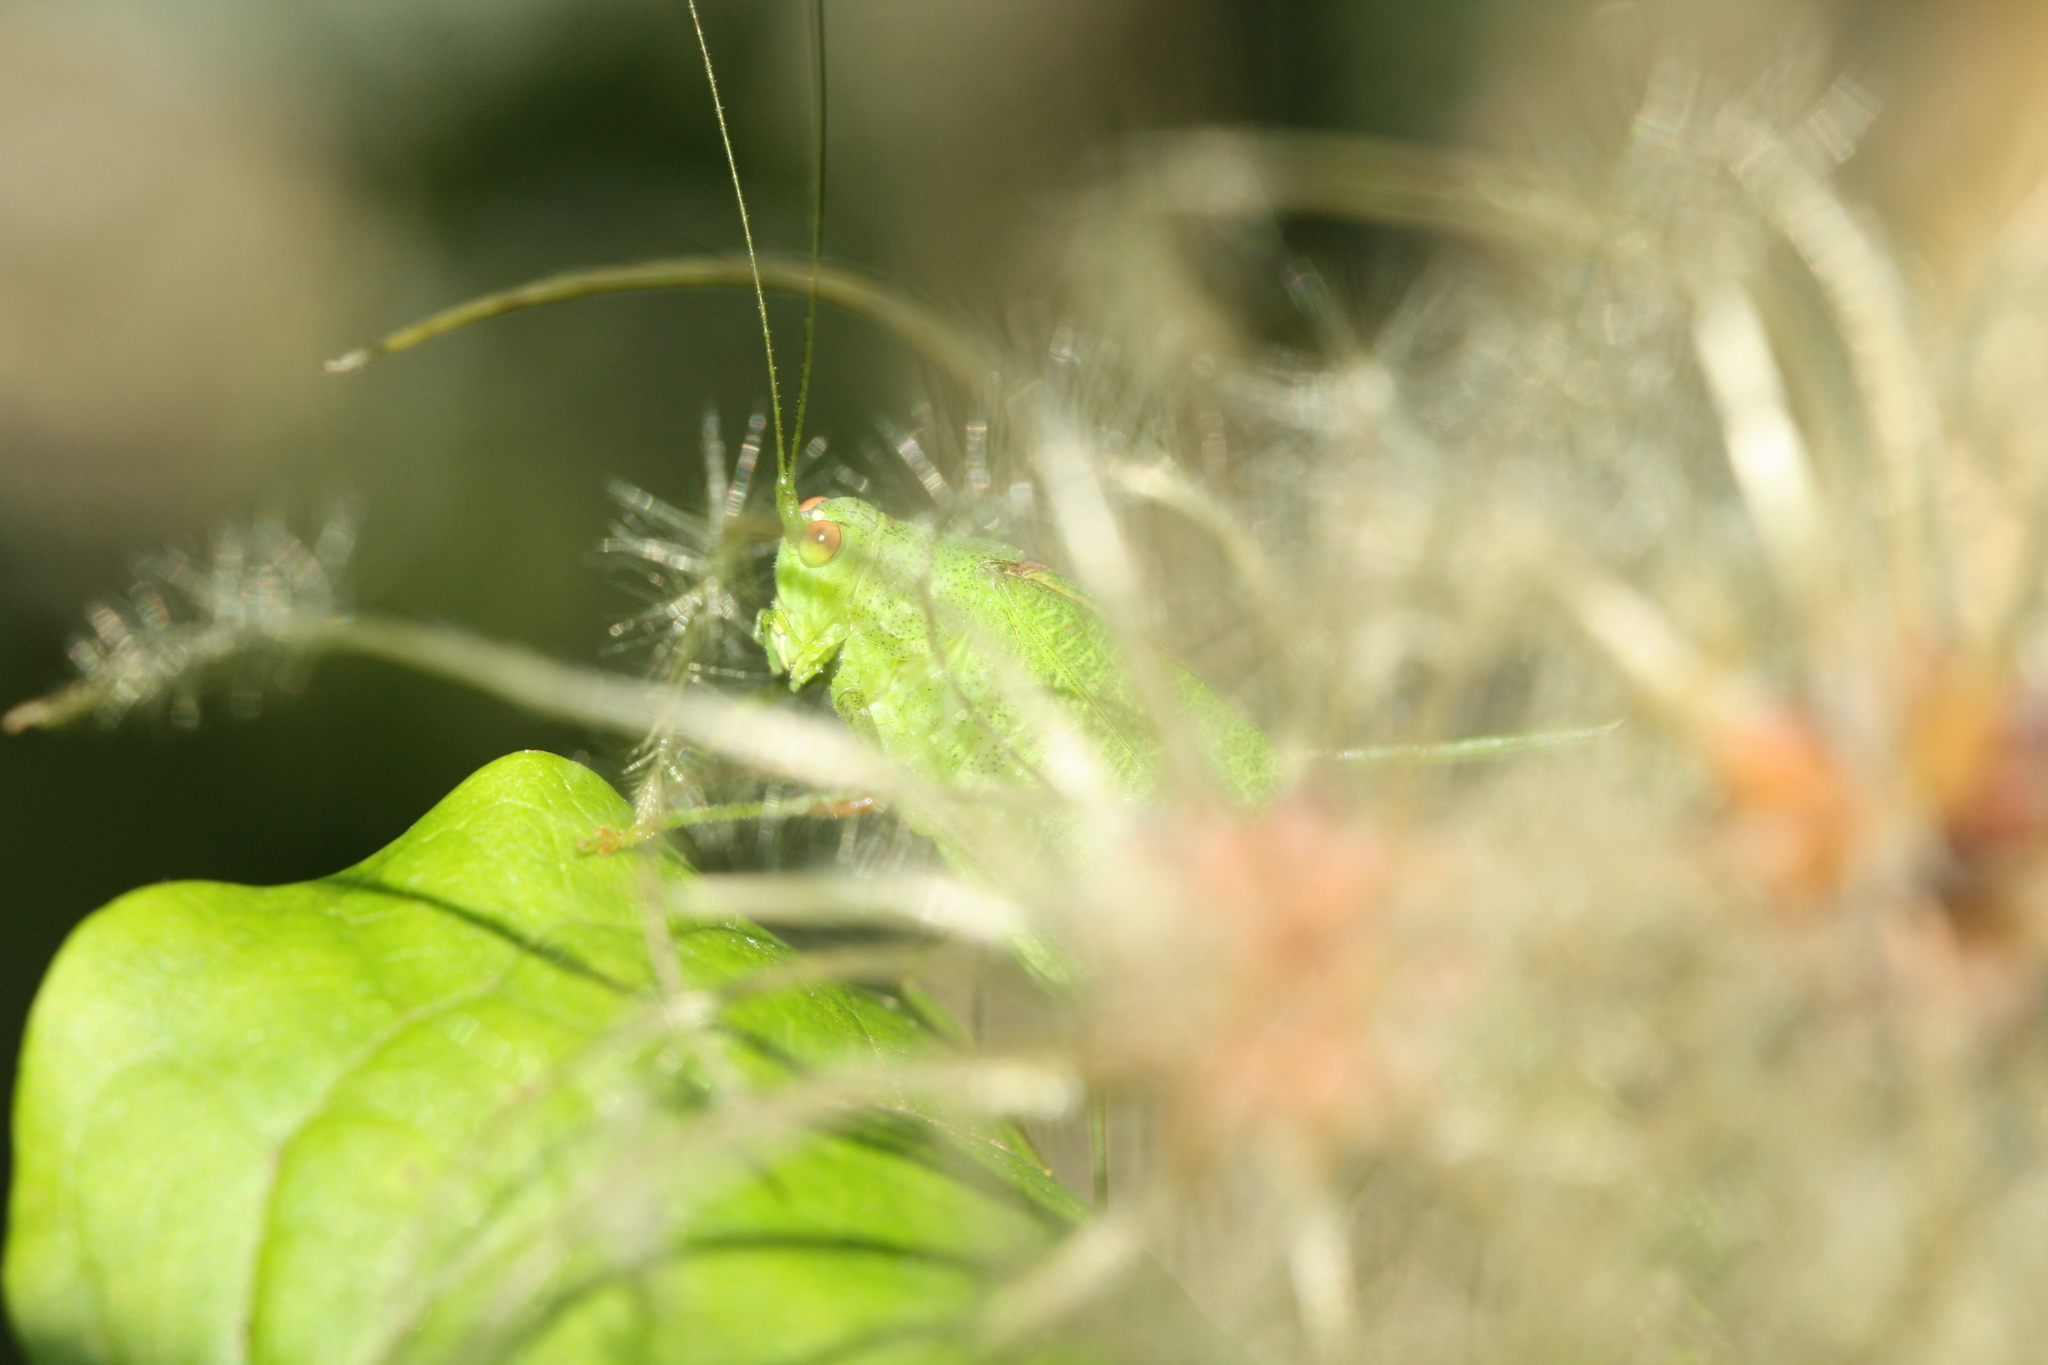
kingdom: Animalia
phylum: Arthropoda
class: Insecta
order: Orthoptera
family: Tettigoniidae
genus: Phaneroptera
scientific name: Phaneroptera nana
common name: Southern sickle bush-cricket
